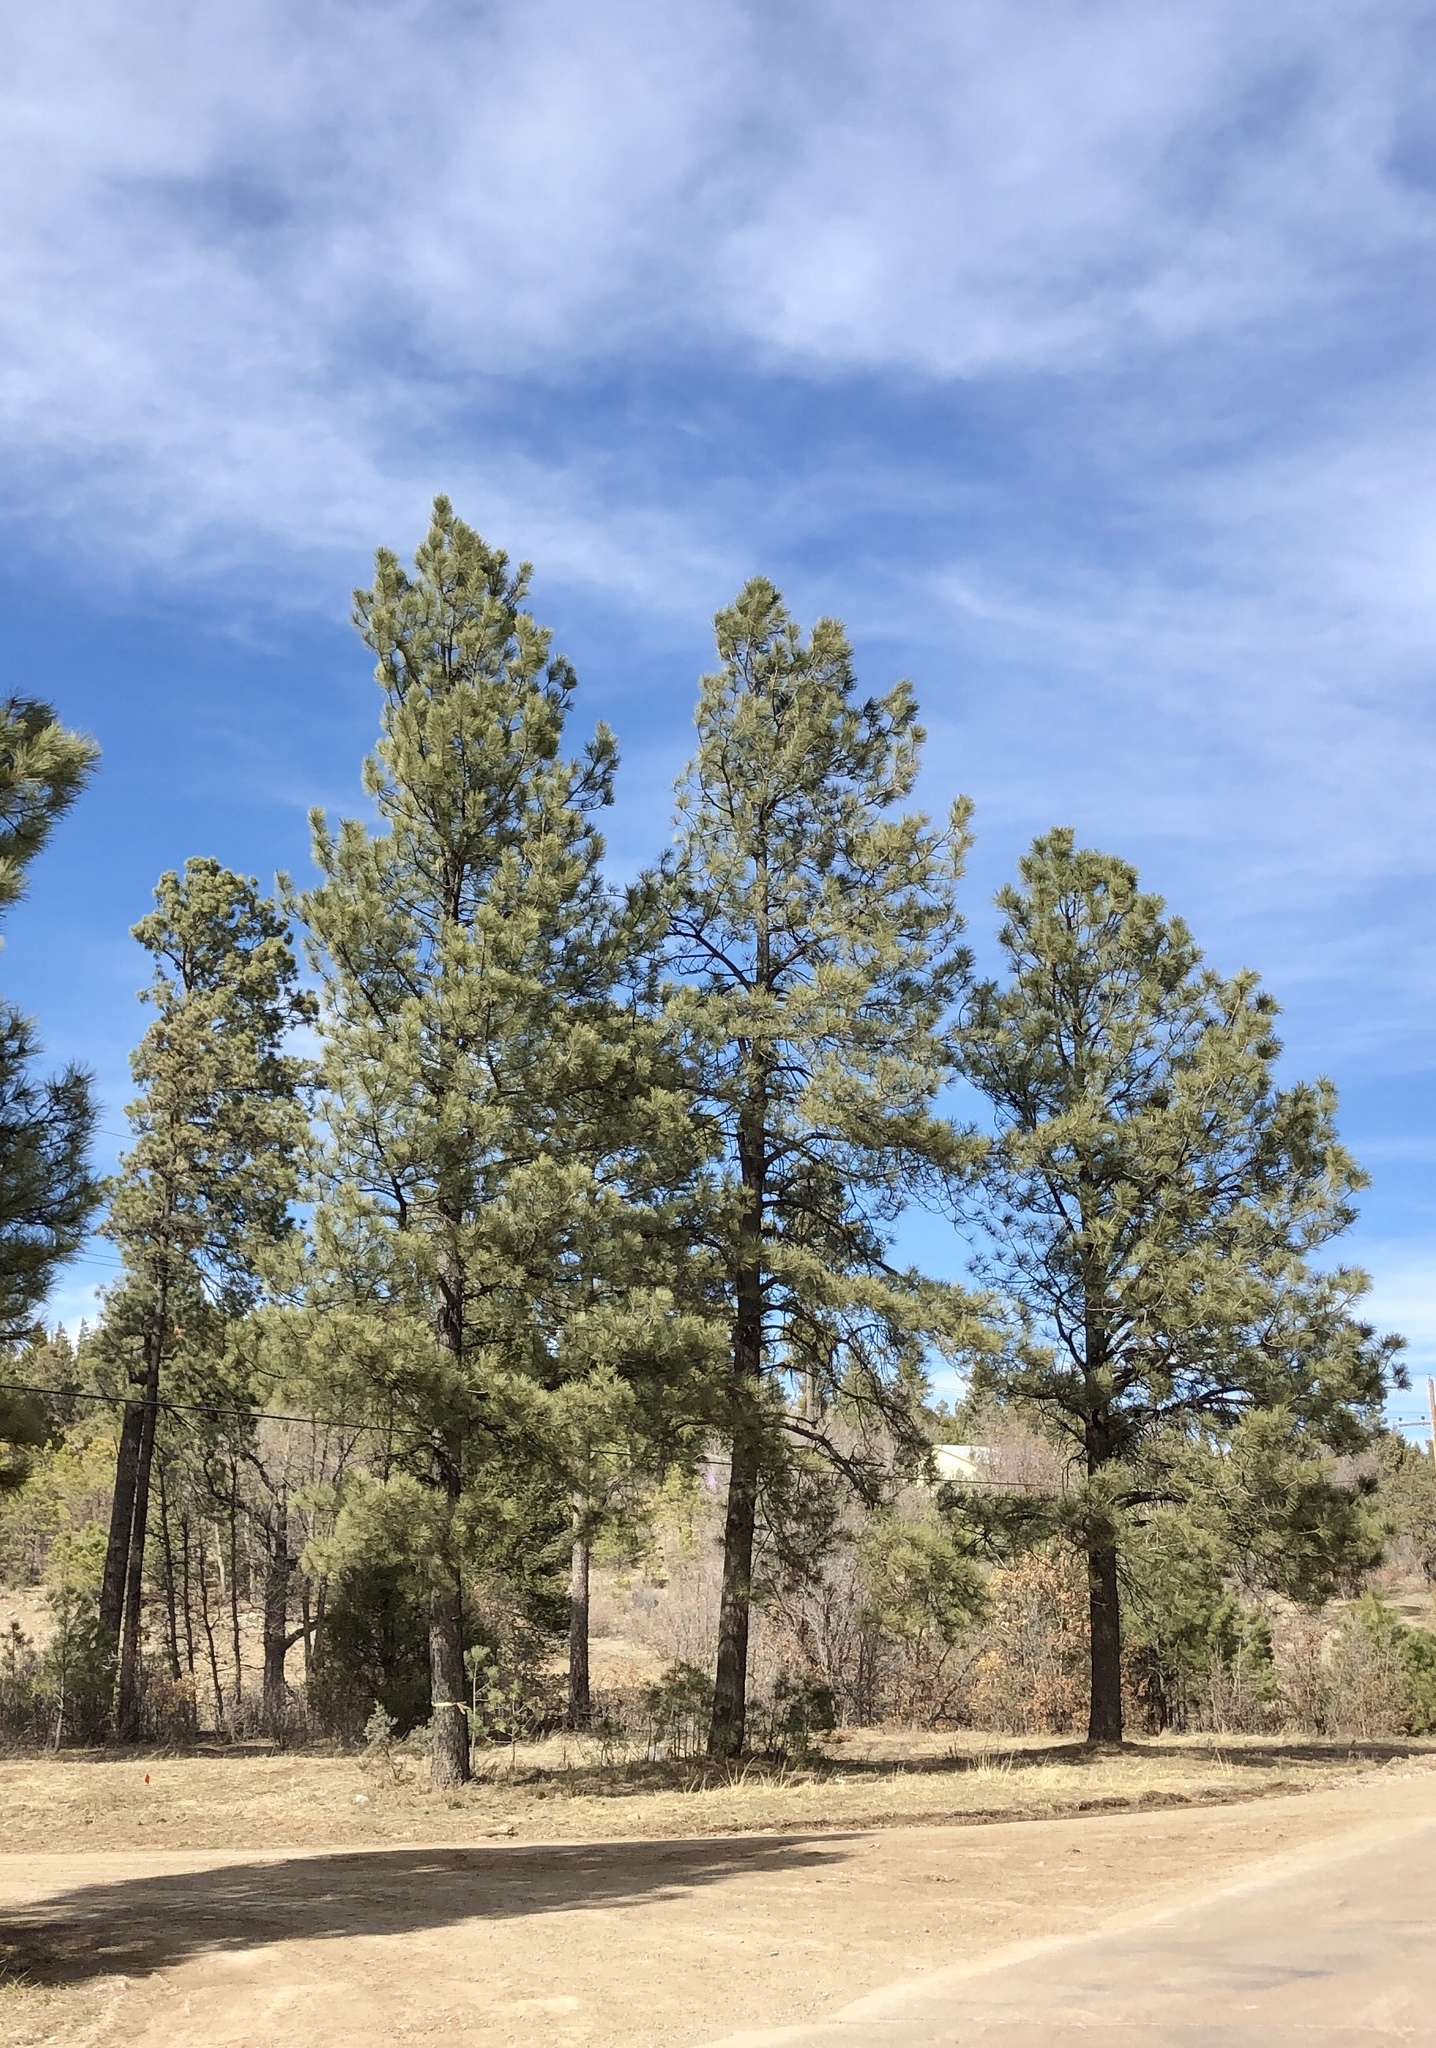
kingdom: Plantae
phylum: Tracheophyta
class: Pinopsida
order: Pinales
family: Pinaceae
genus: Pinus
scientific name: Pinus ponderosa
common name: Western yellow-pine
